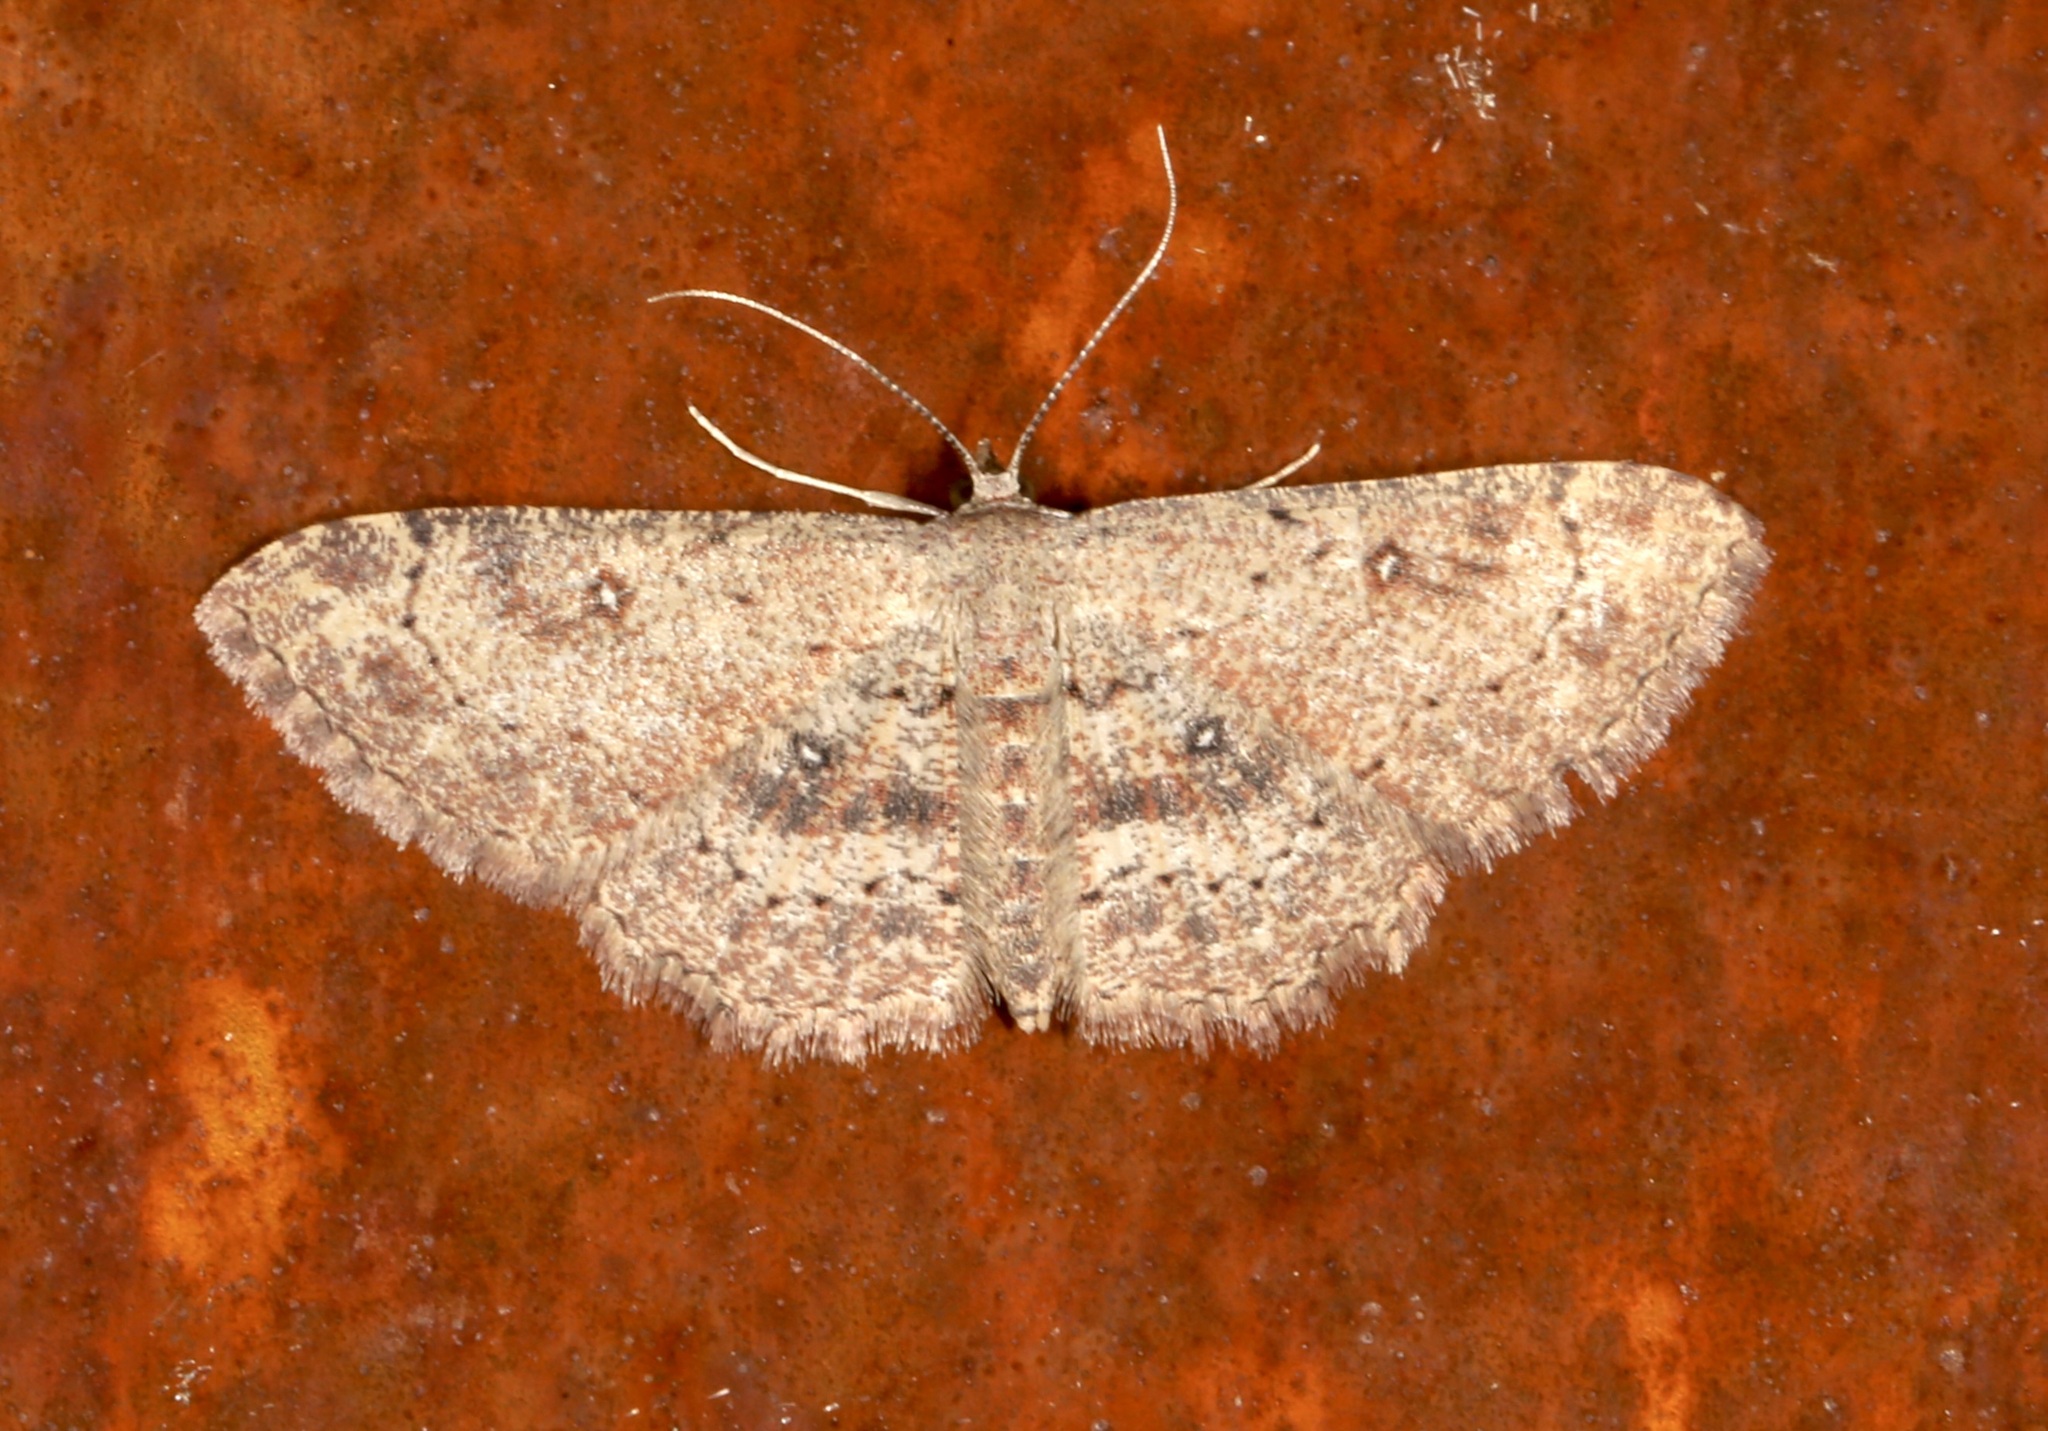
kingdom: Animalia
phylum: Arthropoda
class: Insecta
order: Lepidoptera
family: Geometridae
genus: Cyclophora
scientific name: Cyclophora nanaria
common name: Cankerworm
